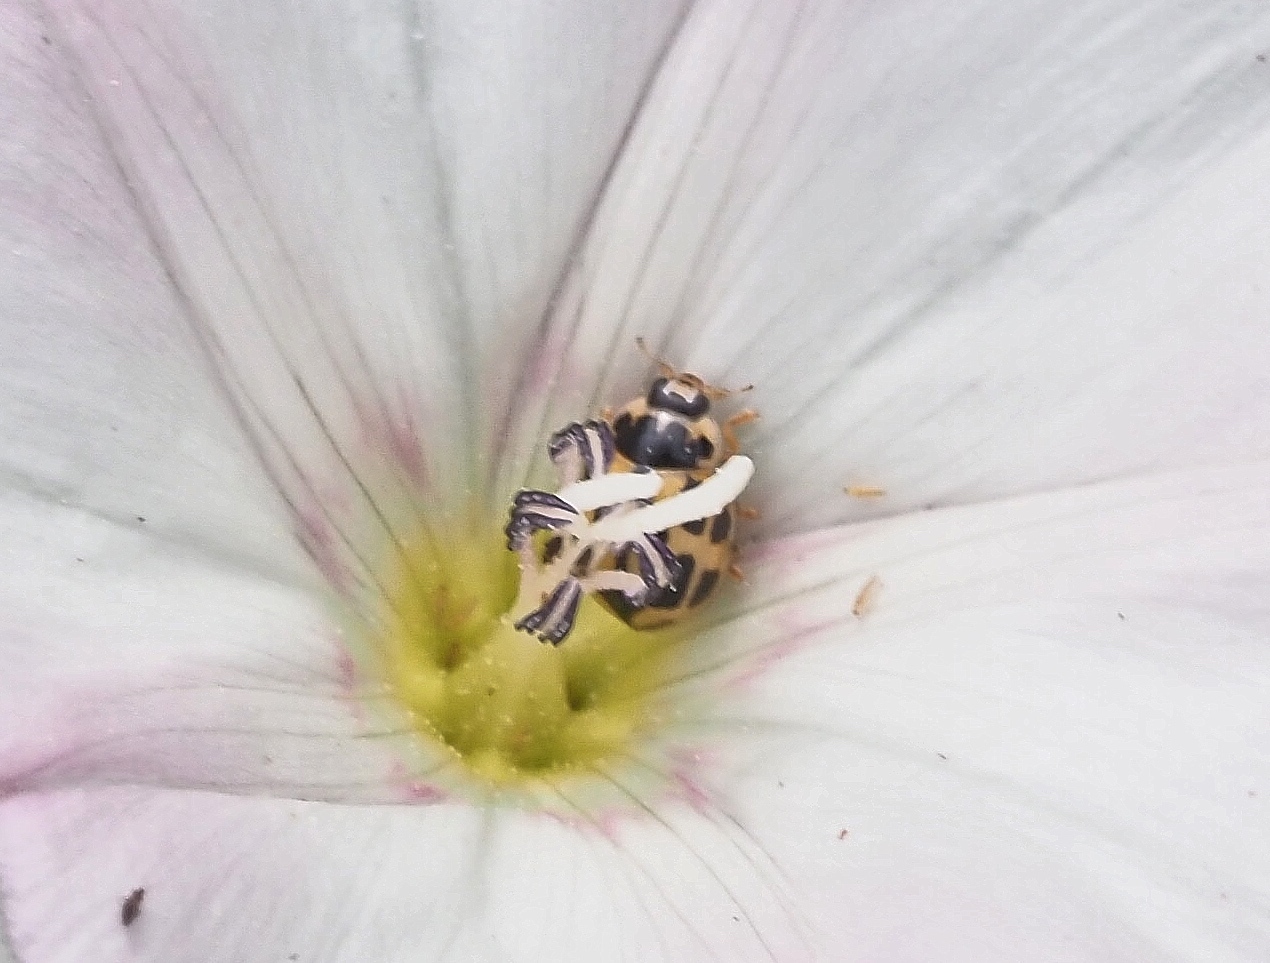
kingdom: Animalia
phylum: Arthropoda
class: Insecta
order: Coleoptera
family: Coccinellidae
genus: Propylaea
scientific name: Propylaea quatuordecimpunctata
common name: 14-spotted ladybird beetle
